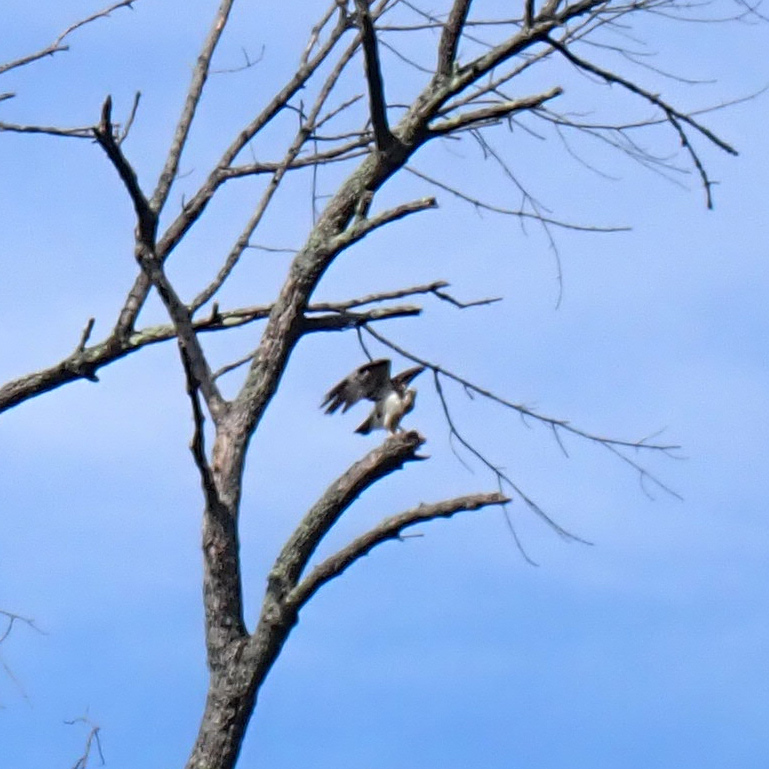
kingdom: Animalia
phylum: Chordata
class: Aves
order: Accipitriformes
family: Pandionidae
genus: Pandion
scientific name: Pandion haliaetus
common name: Osprey
